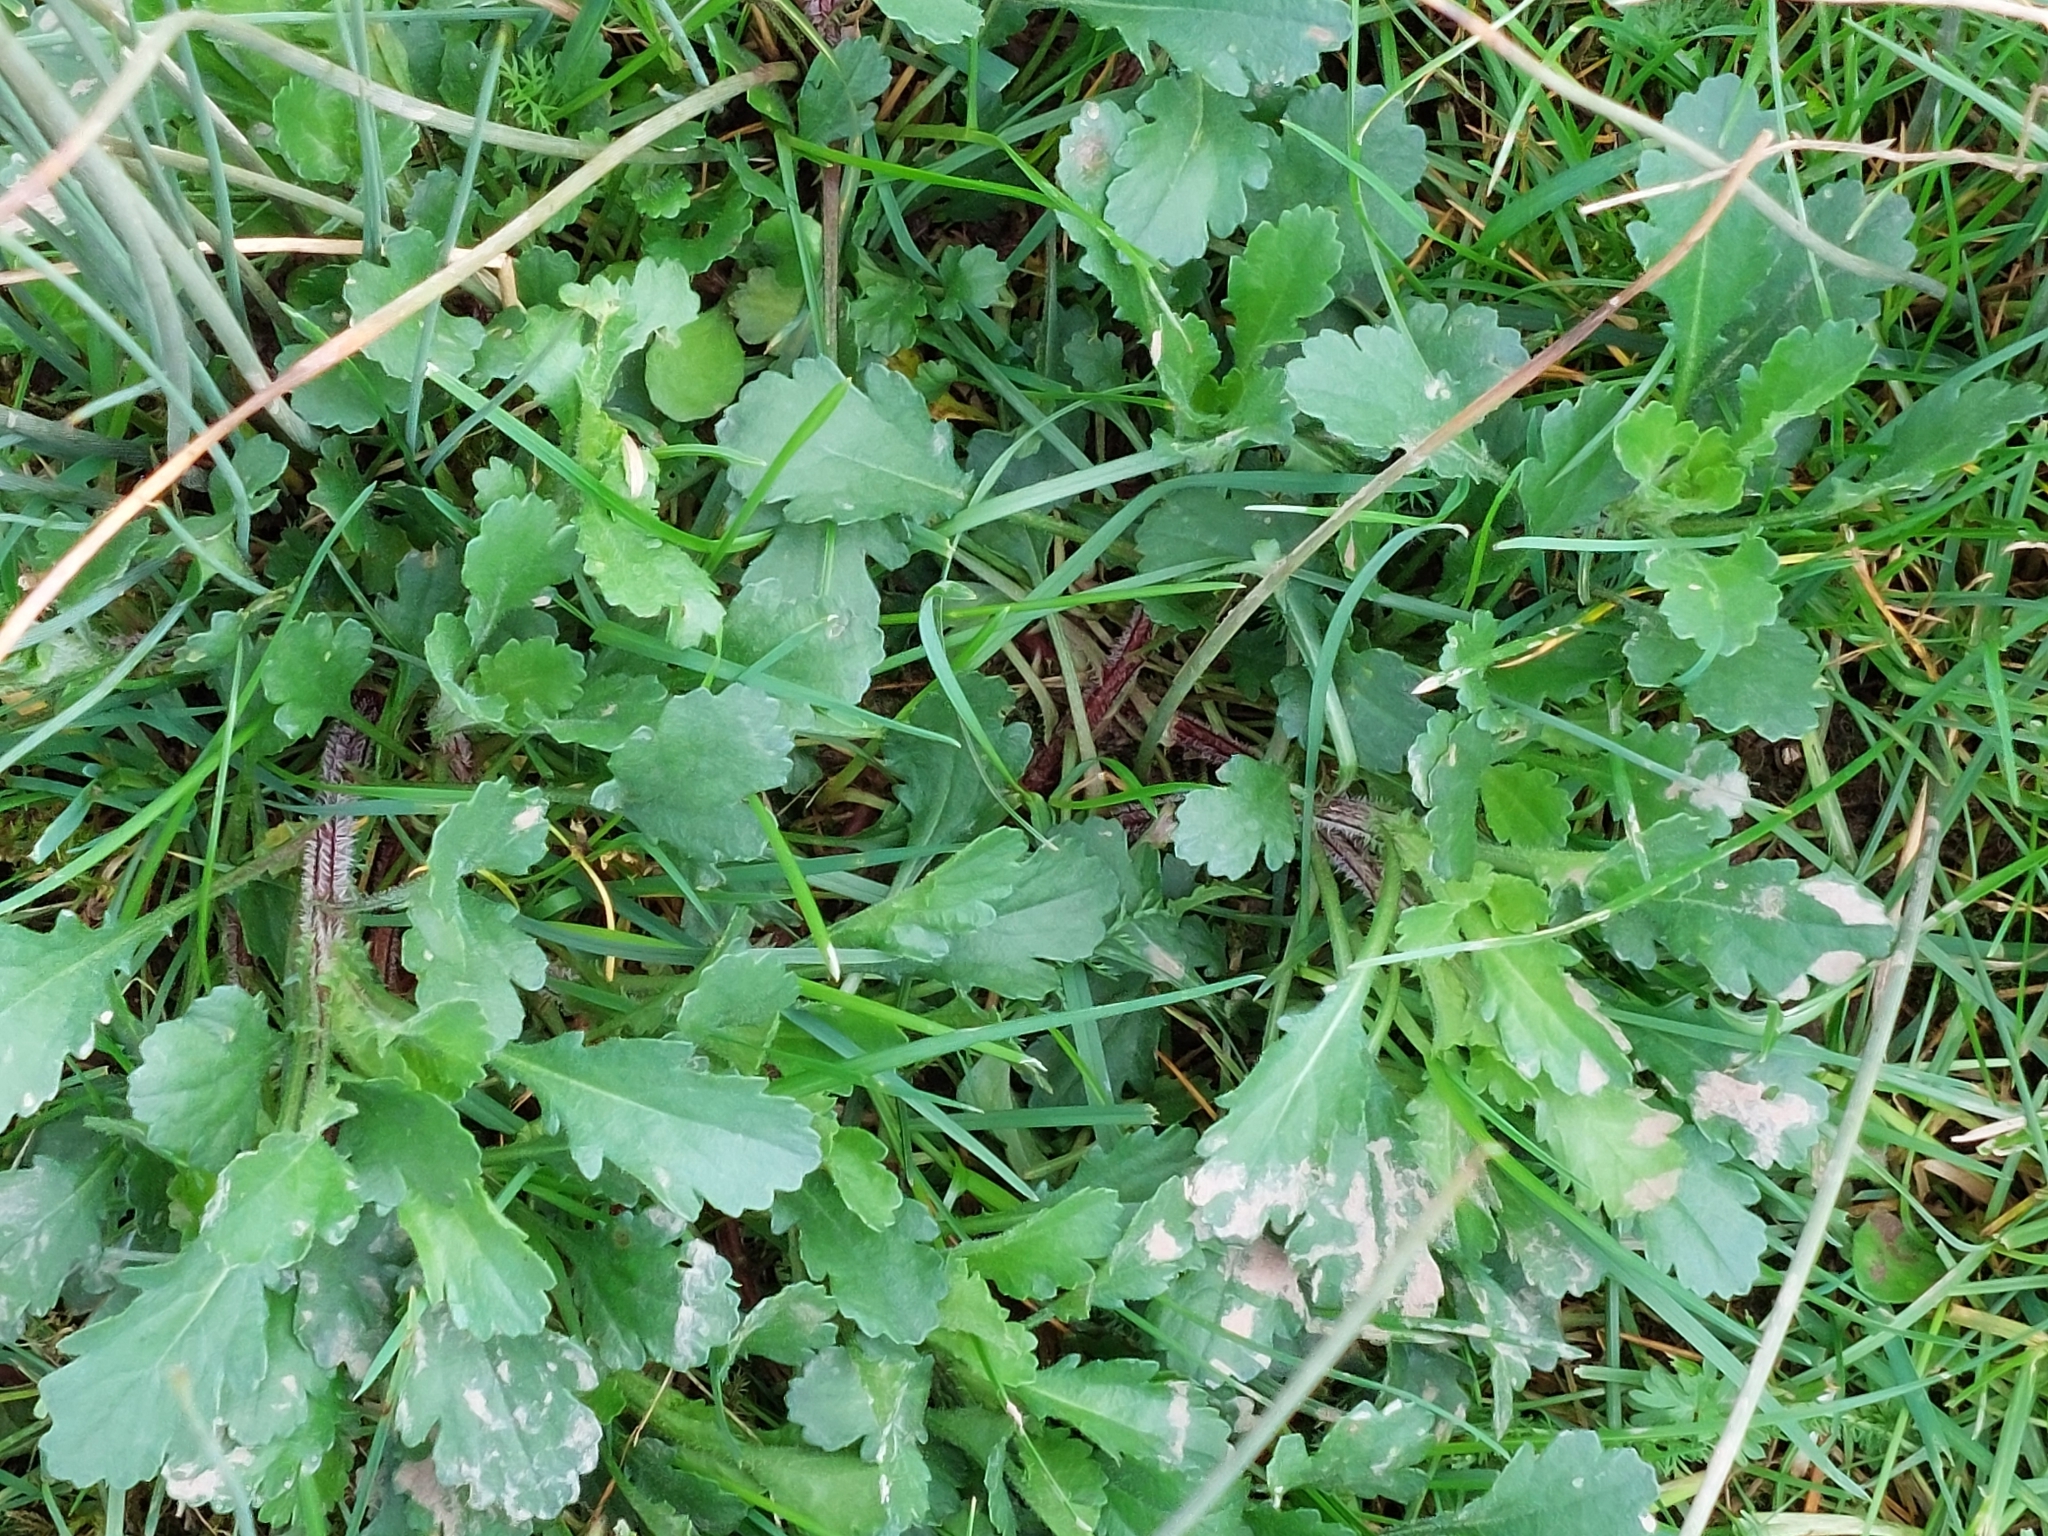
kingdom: Plantae
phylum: Tracheophyta
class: Magnoliopsida
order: Asterales
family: Asteraceae
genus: Leucanthemum
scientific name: Leucanthemum vulgare
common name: Oxeye daisy
